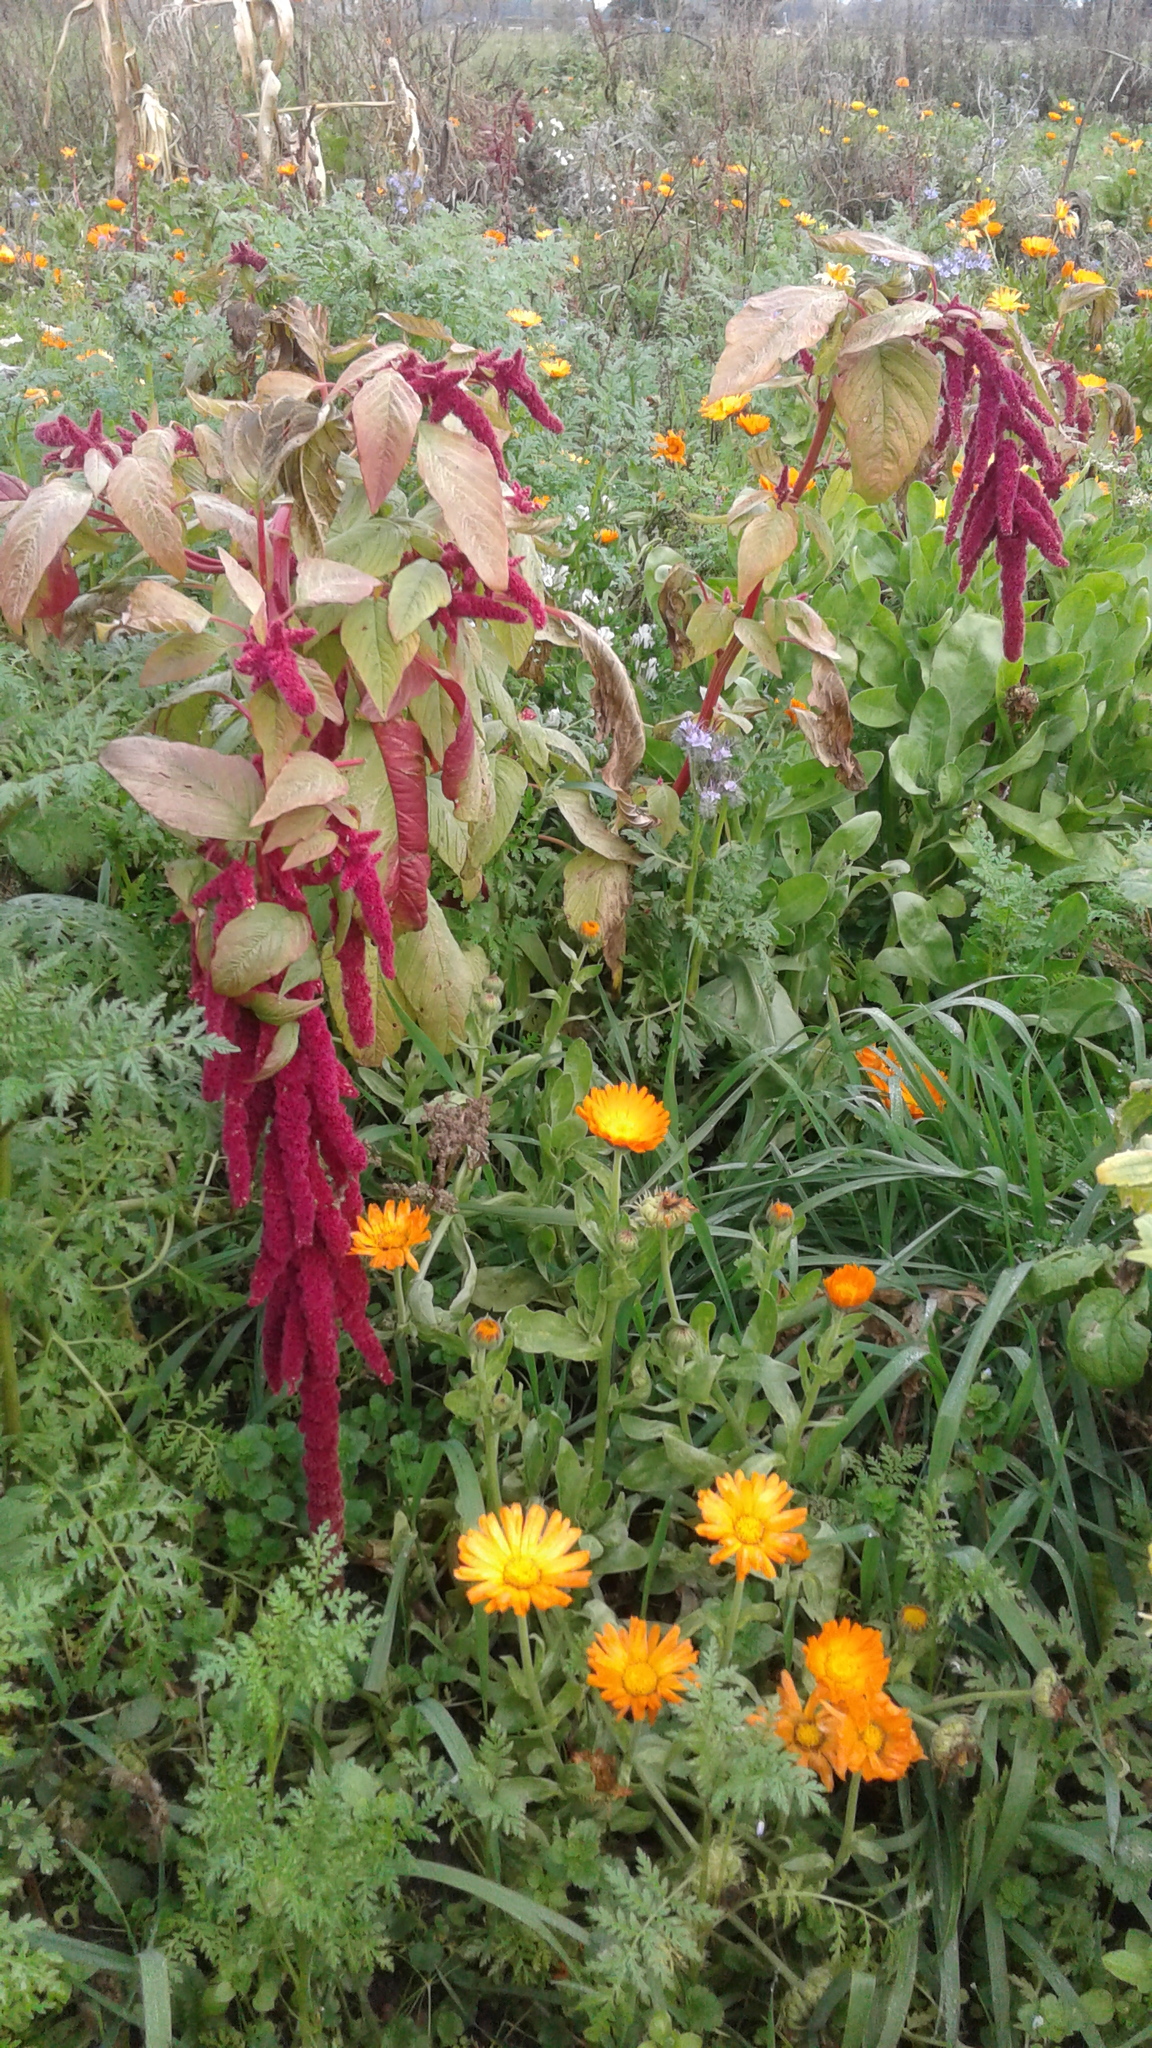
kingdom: Plantae
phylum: Tracheophyta
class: Magnoliopsida
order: Caryophyllales
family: Amaranthaceae
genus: Amaranthus
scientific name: Amaranthus caudatus
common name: Love-lies-bleeding
